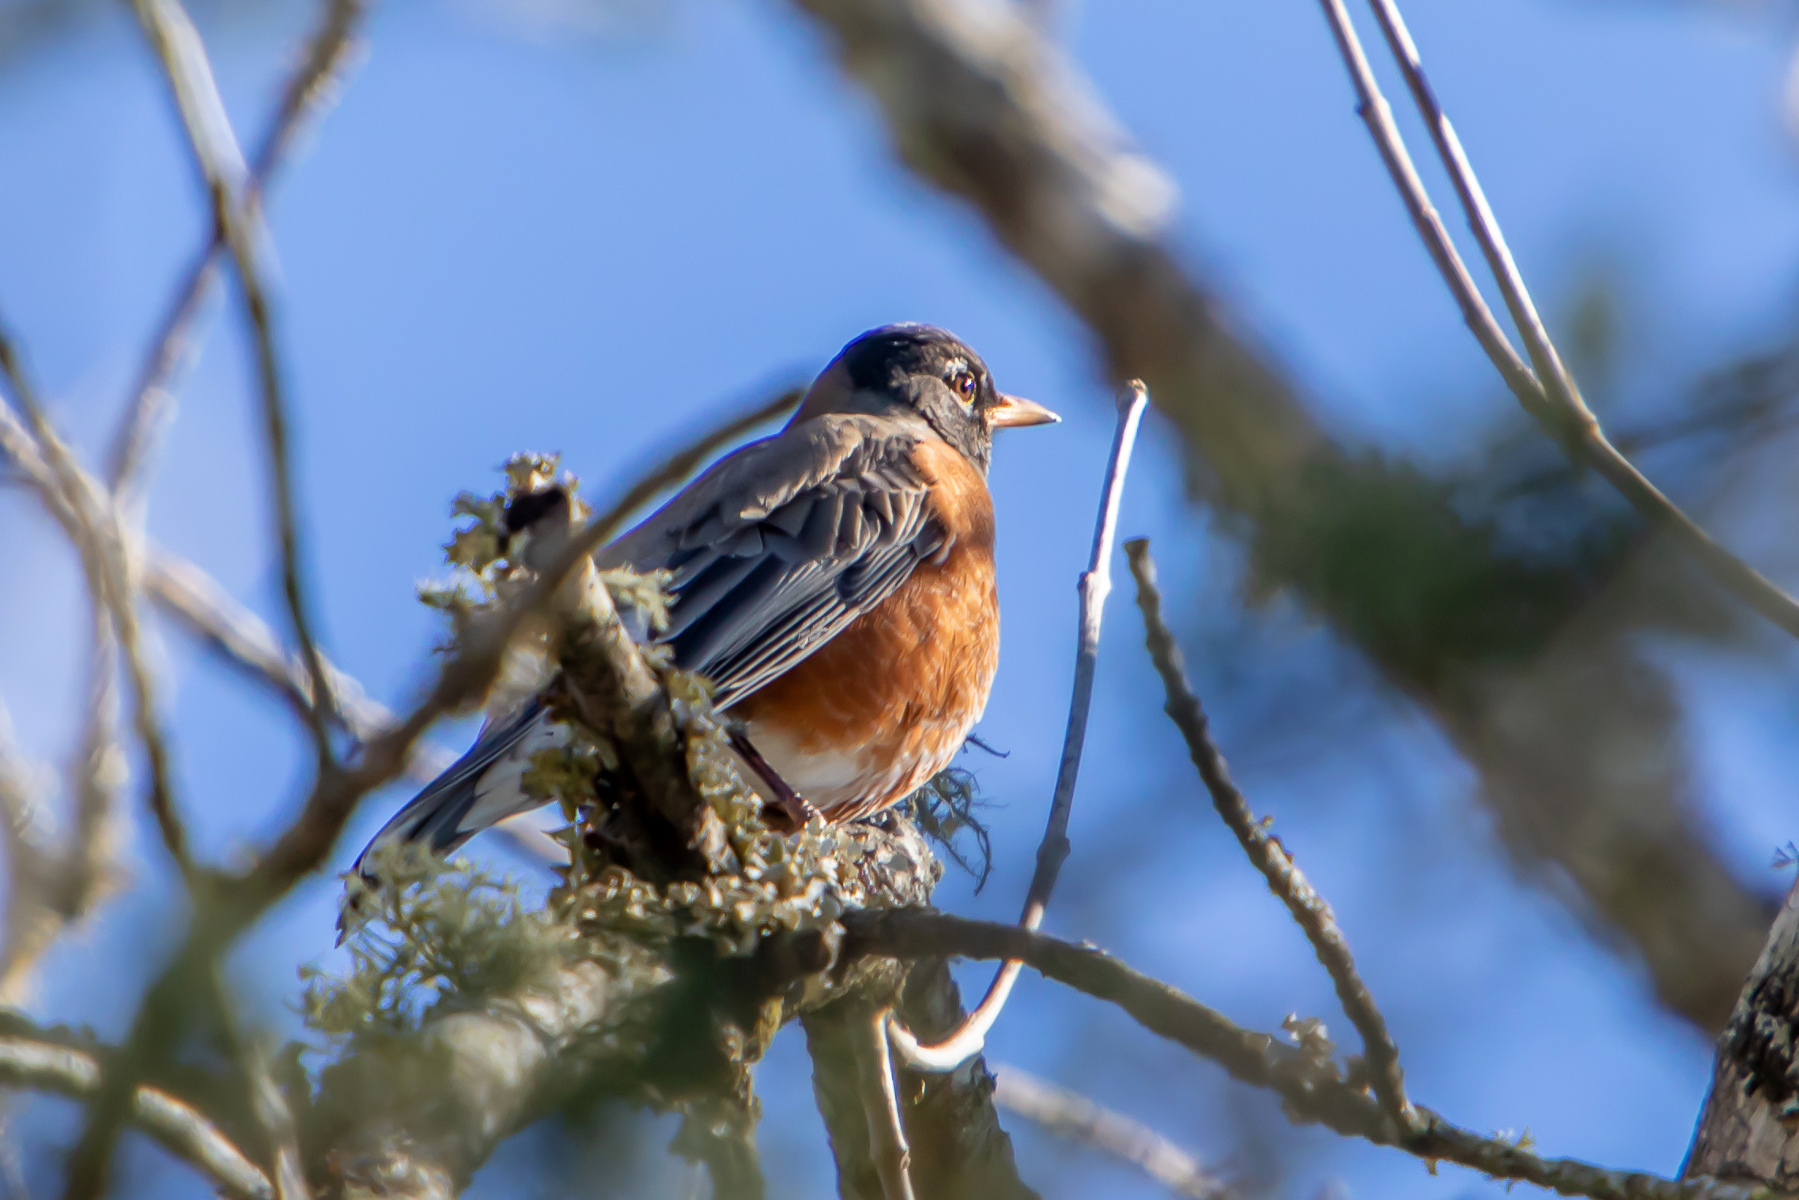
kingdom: Animalia
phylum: Chordata
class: Aves
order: Passeriformes
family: Turdidae
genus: Turdus
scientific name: Turdus migratorius
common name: American robin
